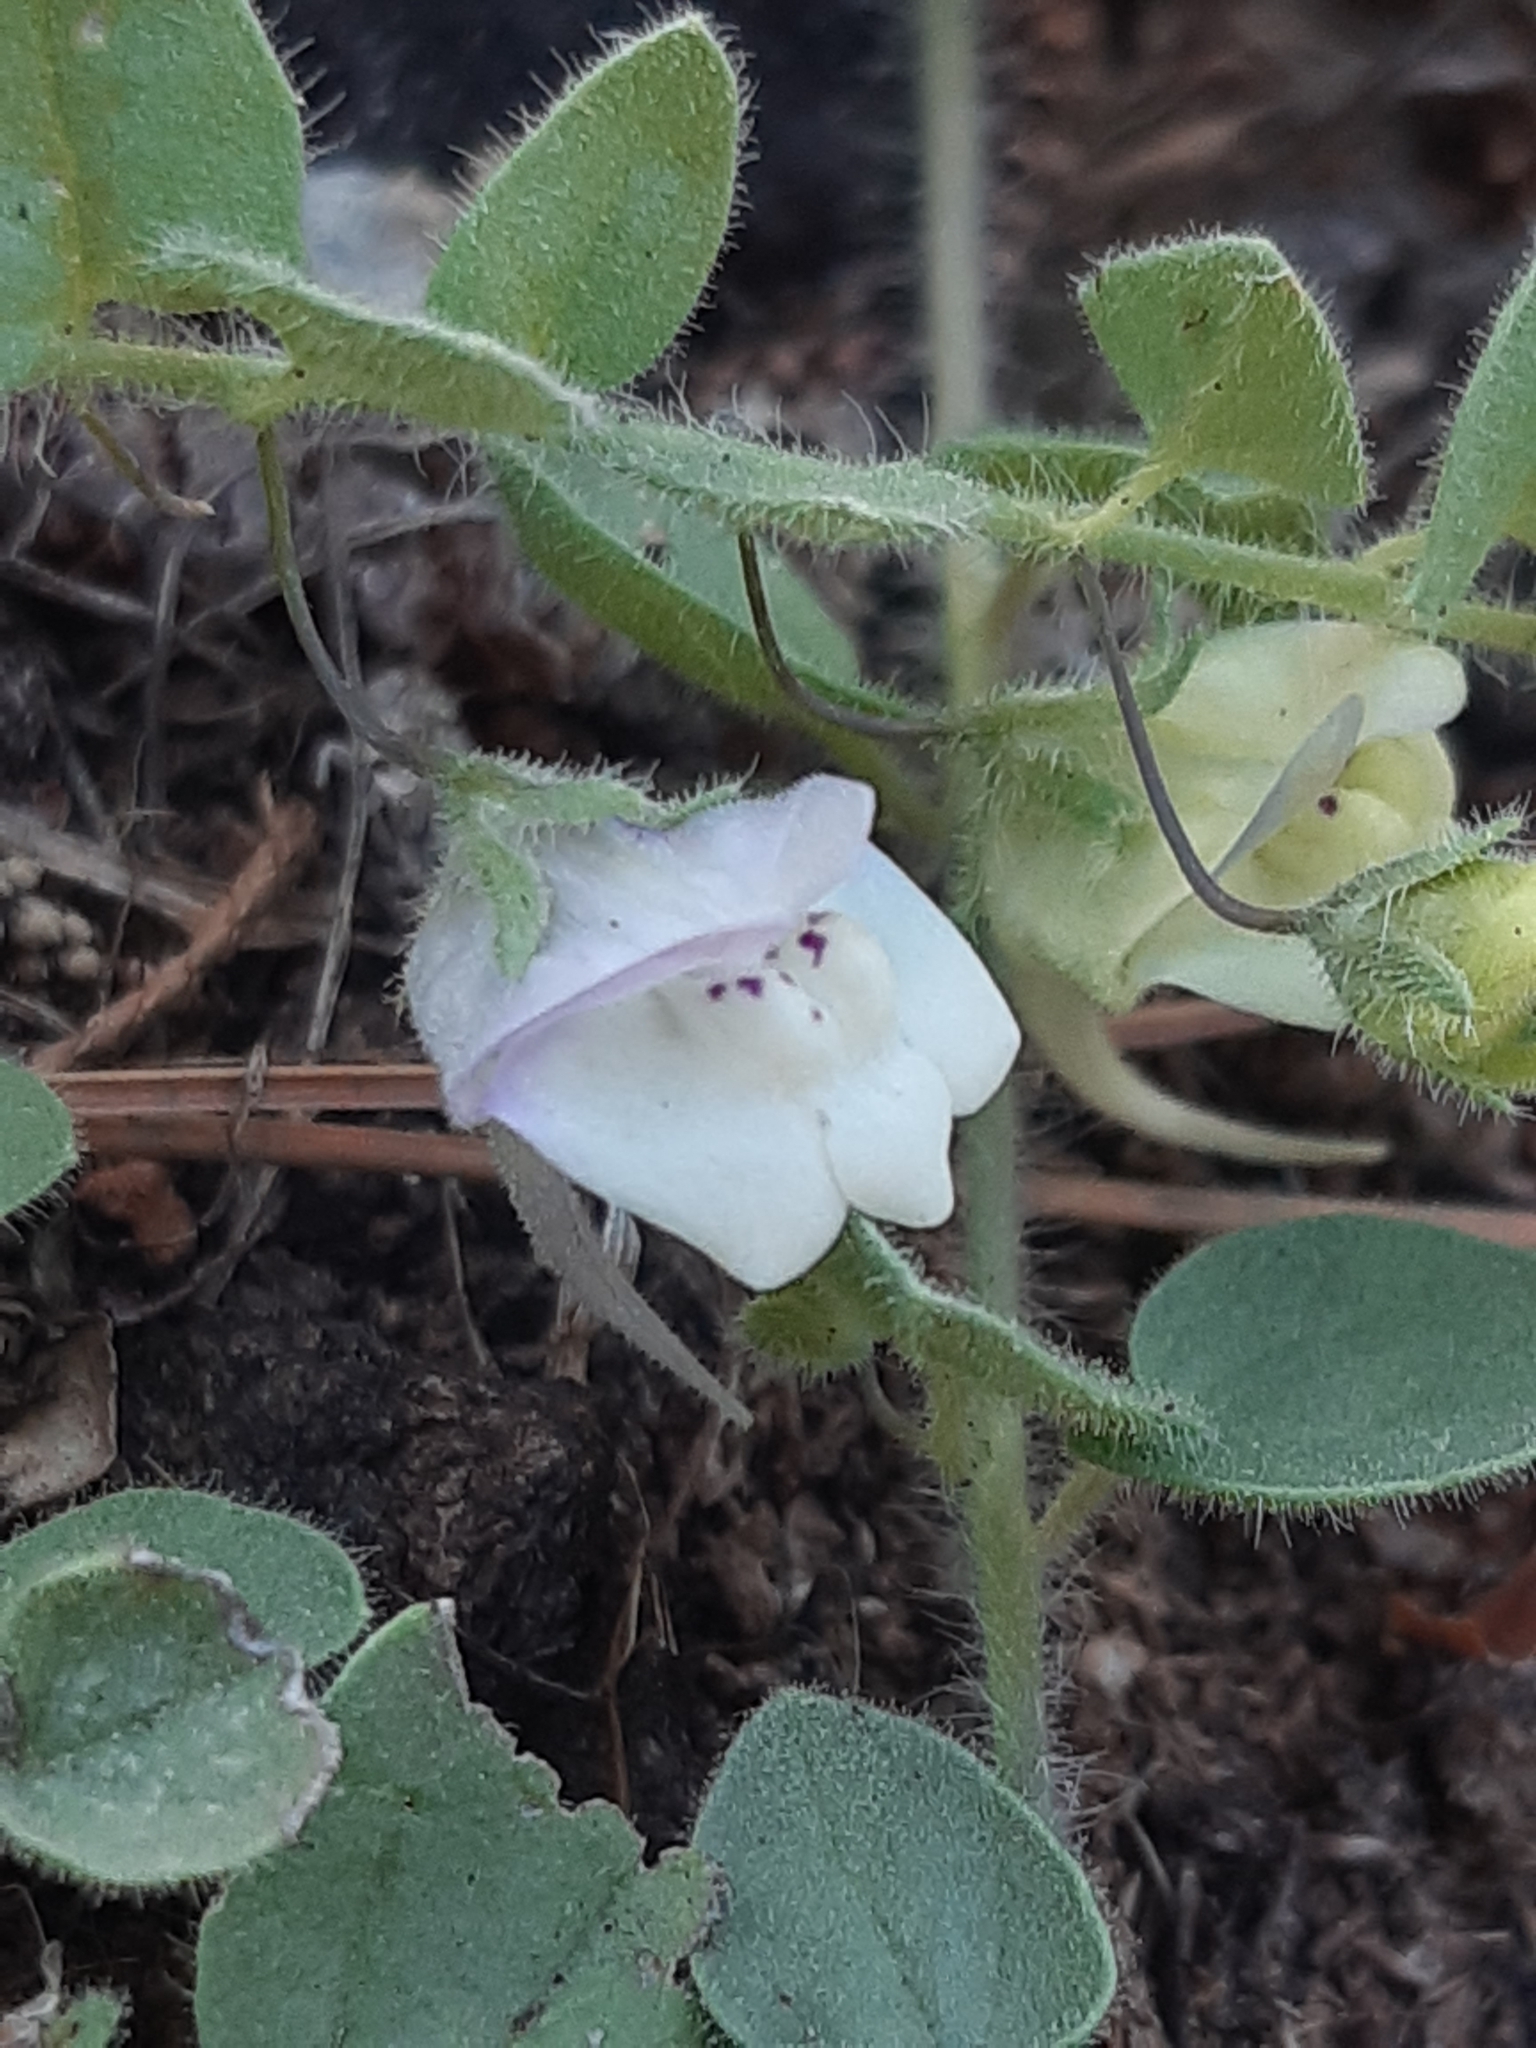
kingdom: Plantae
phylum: Tracheophyta
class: Magnoliopsida
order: Lamiales
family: Plantaginaceae
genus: Kickxia
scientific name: Kickxia commutata
